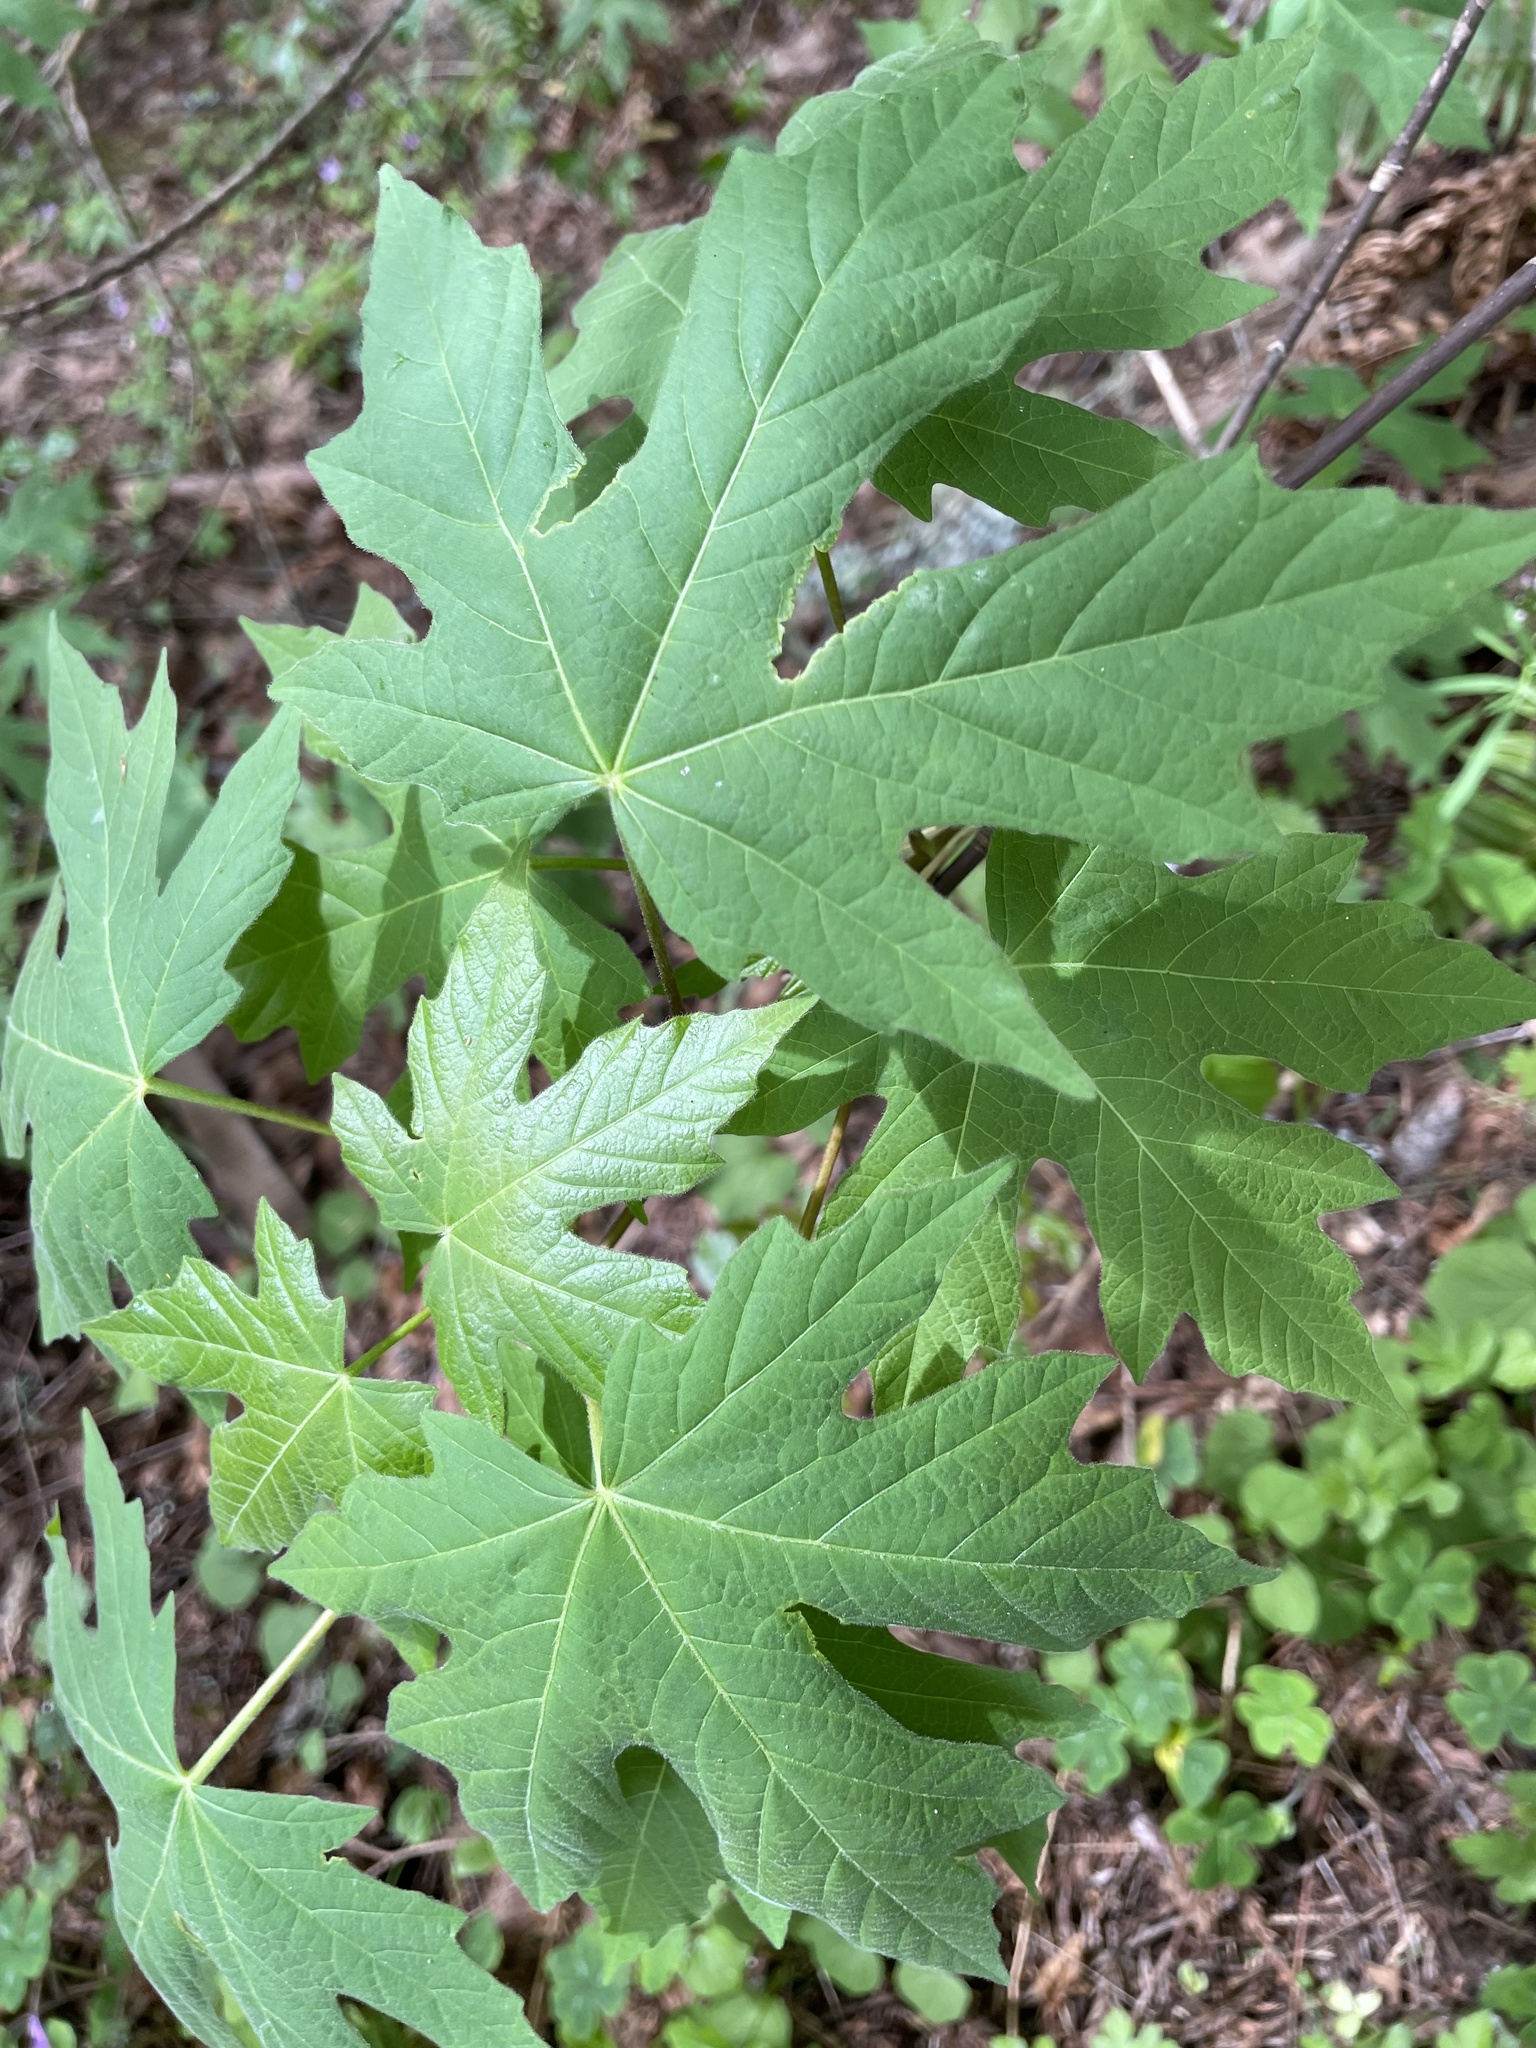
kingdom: Plantae
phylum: Tracheophyta
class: Magnoliopsida
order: Sapindales
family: Sapindaceae
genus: Acer
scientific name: Acer macrophyllum
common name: Oregon maple
